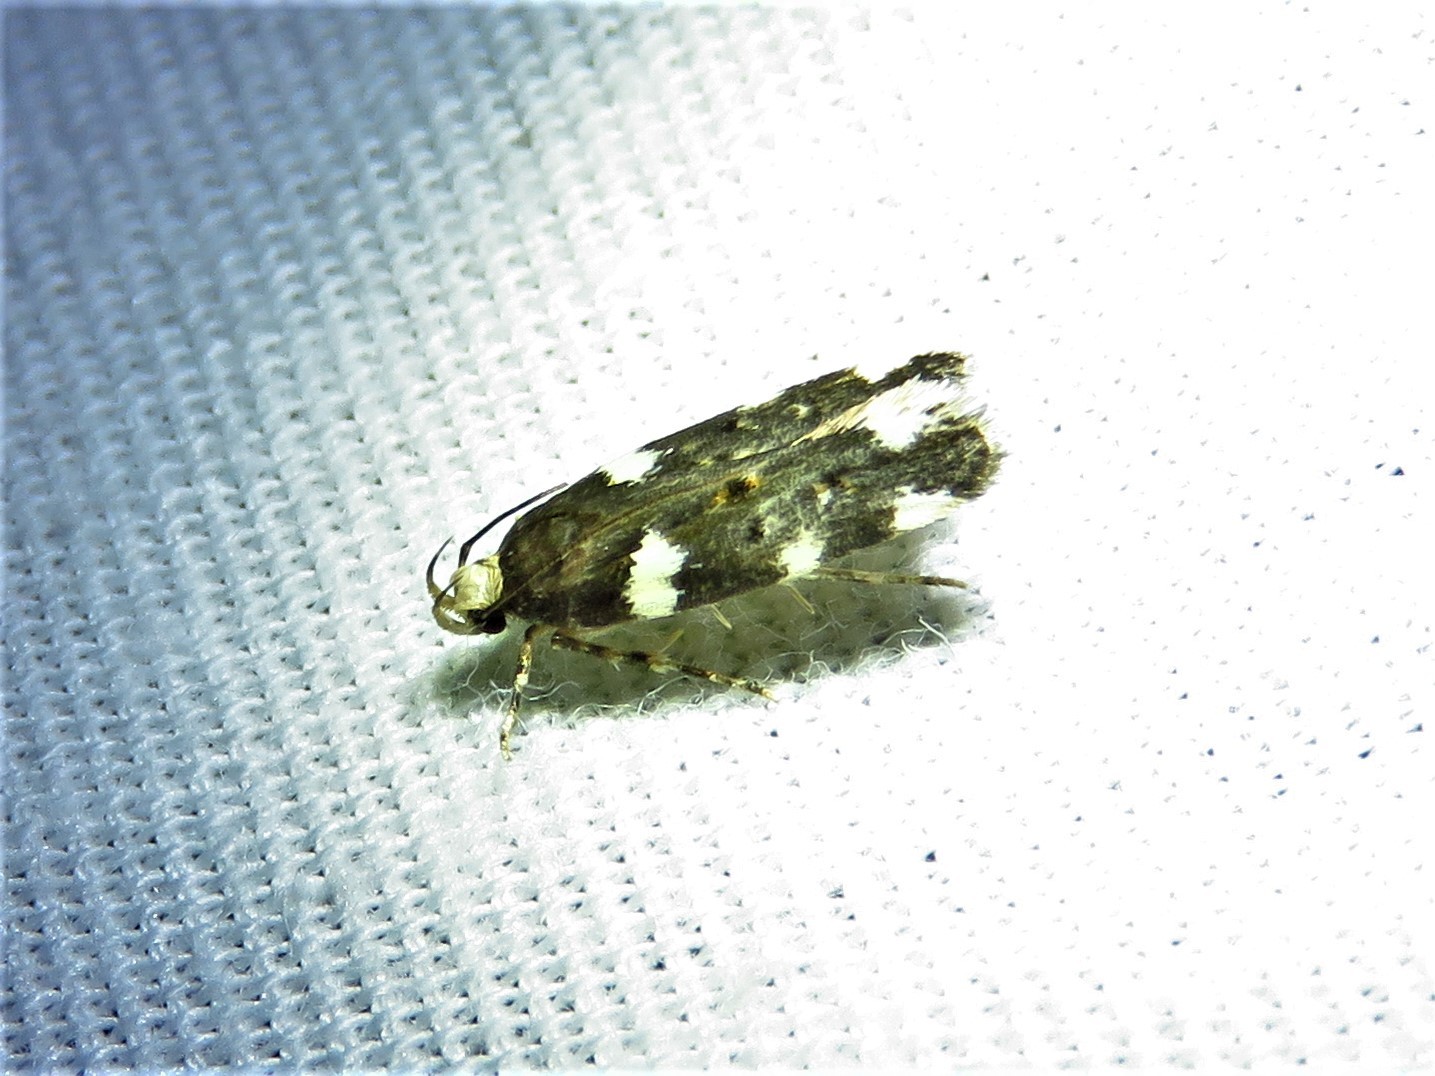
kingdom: Animalia
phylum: Arthropoda
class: Insecta
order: Lepidoptera
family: Gelechiidae
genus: Fascista
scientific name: Fascista cercerisella
